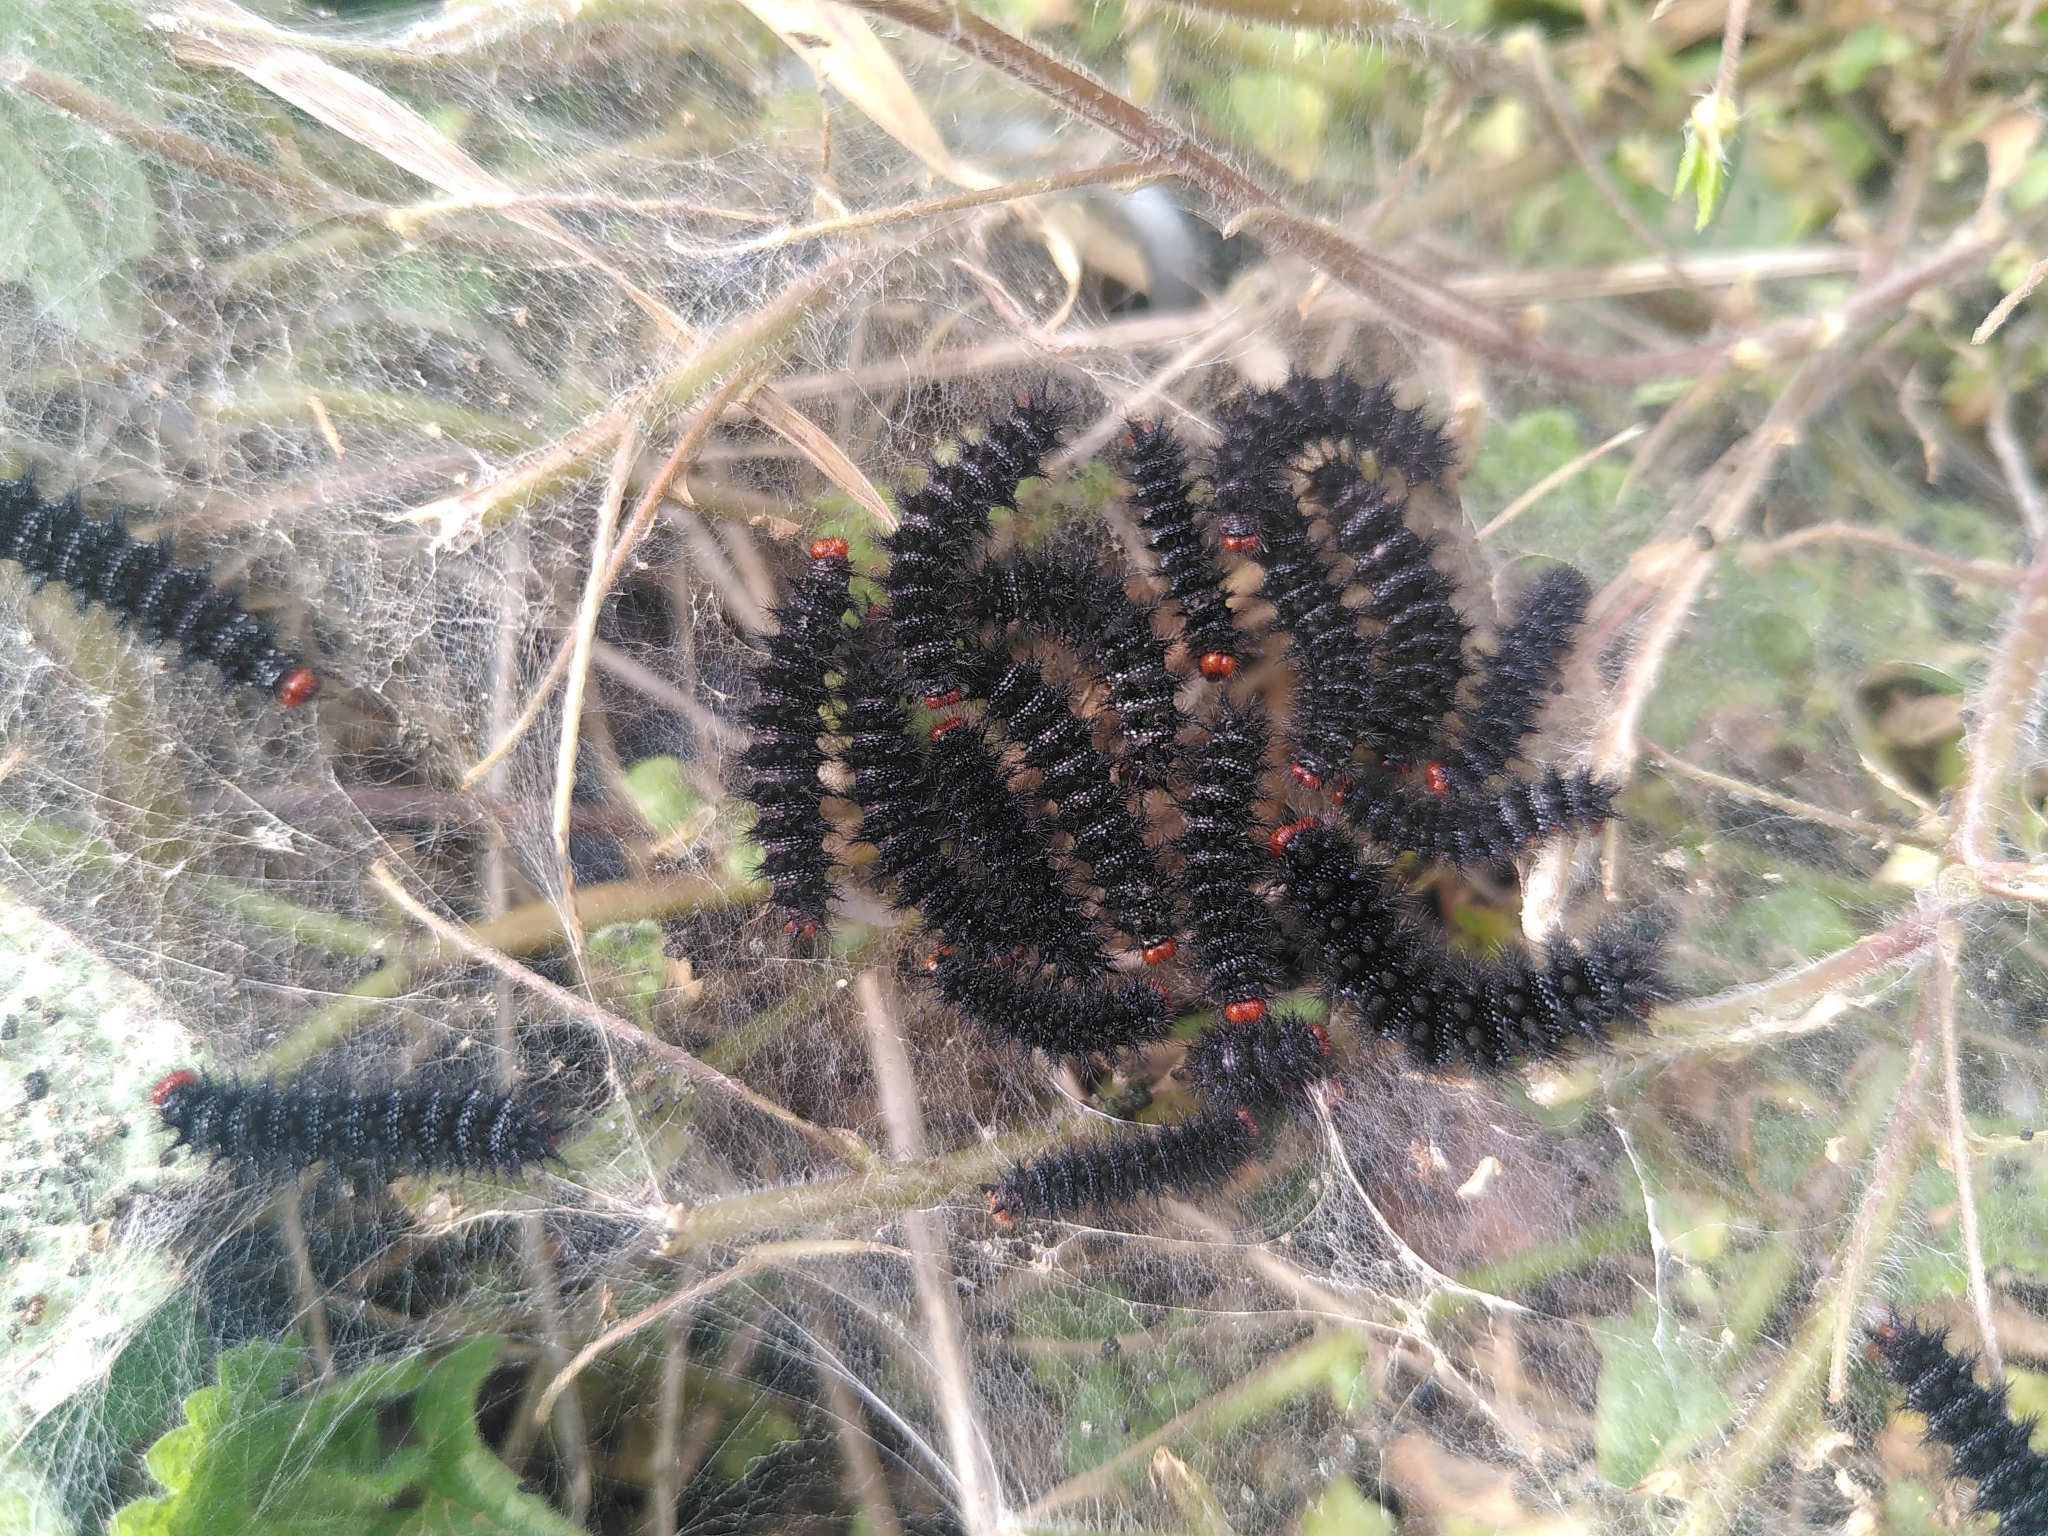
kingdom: Animalia
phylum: Arthropoda
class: Insecta
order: Lepidoptera
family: Nymphalidae
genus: Melitaea
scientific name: Melitaea cinxia
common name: Glanville fritillary
